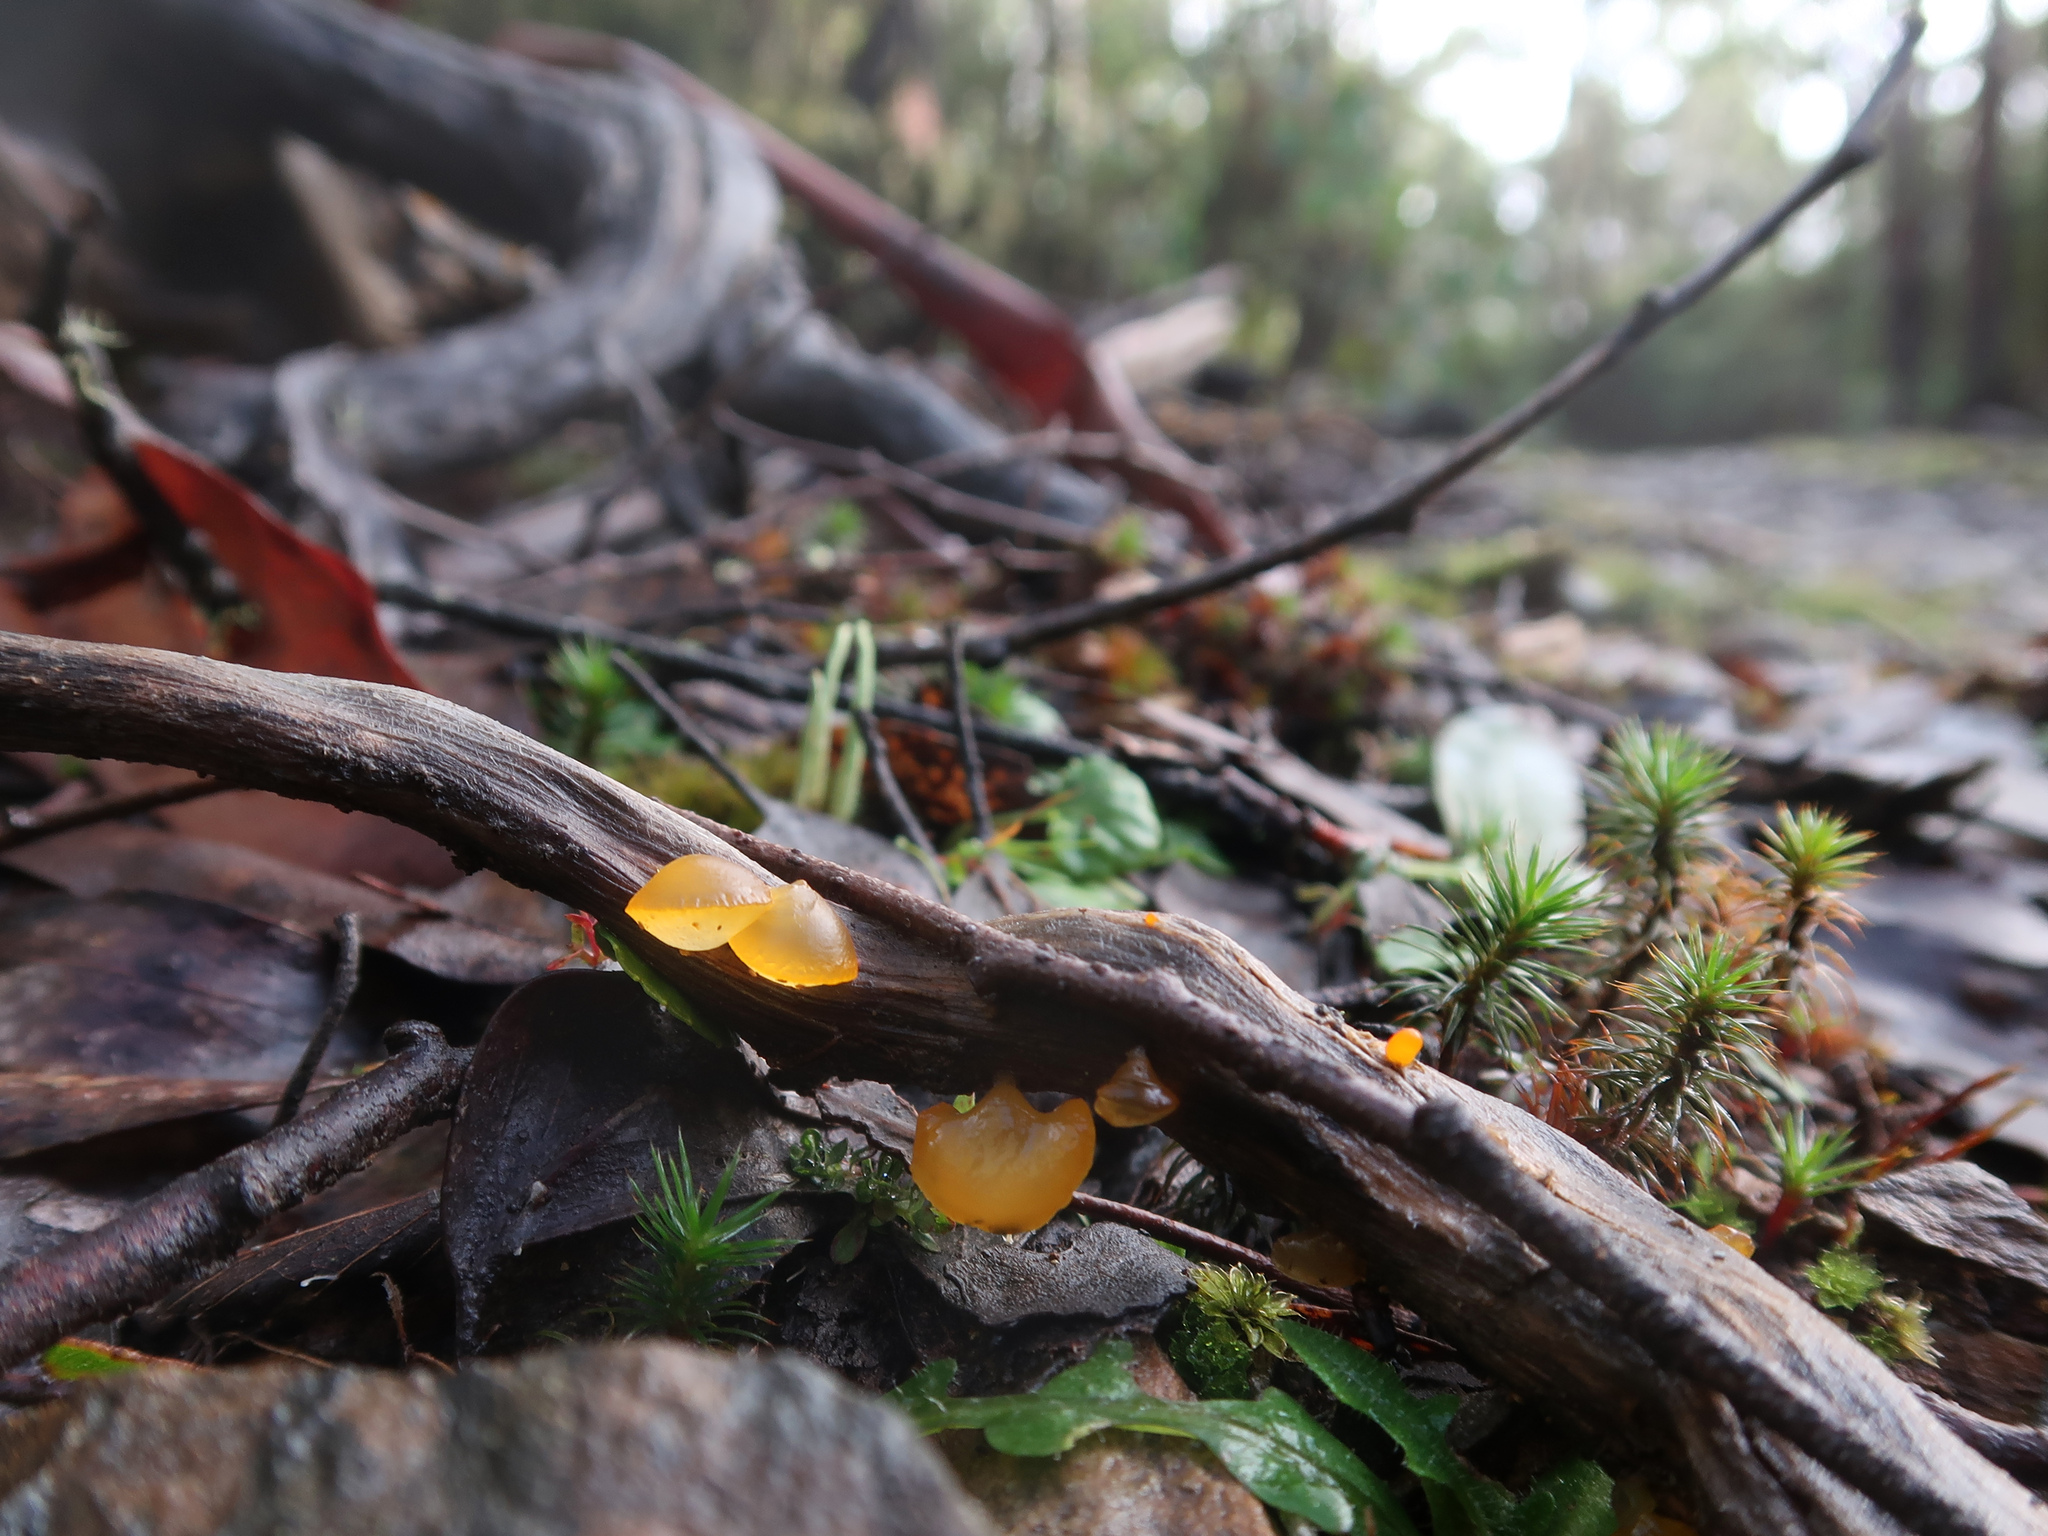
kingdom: Fungi
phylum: Basidiomycota
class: Dacrymycetes
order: Dacrymycetales
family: Dacrymycetaceae
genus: Heterotextus
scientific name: Heterotextus peziziformis
